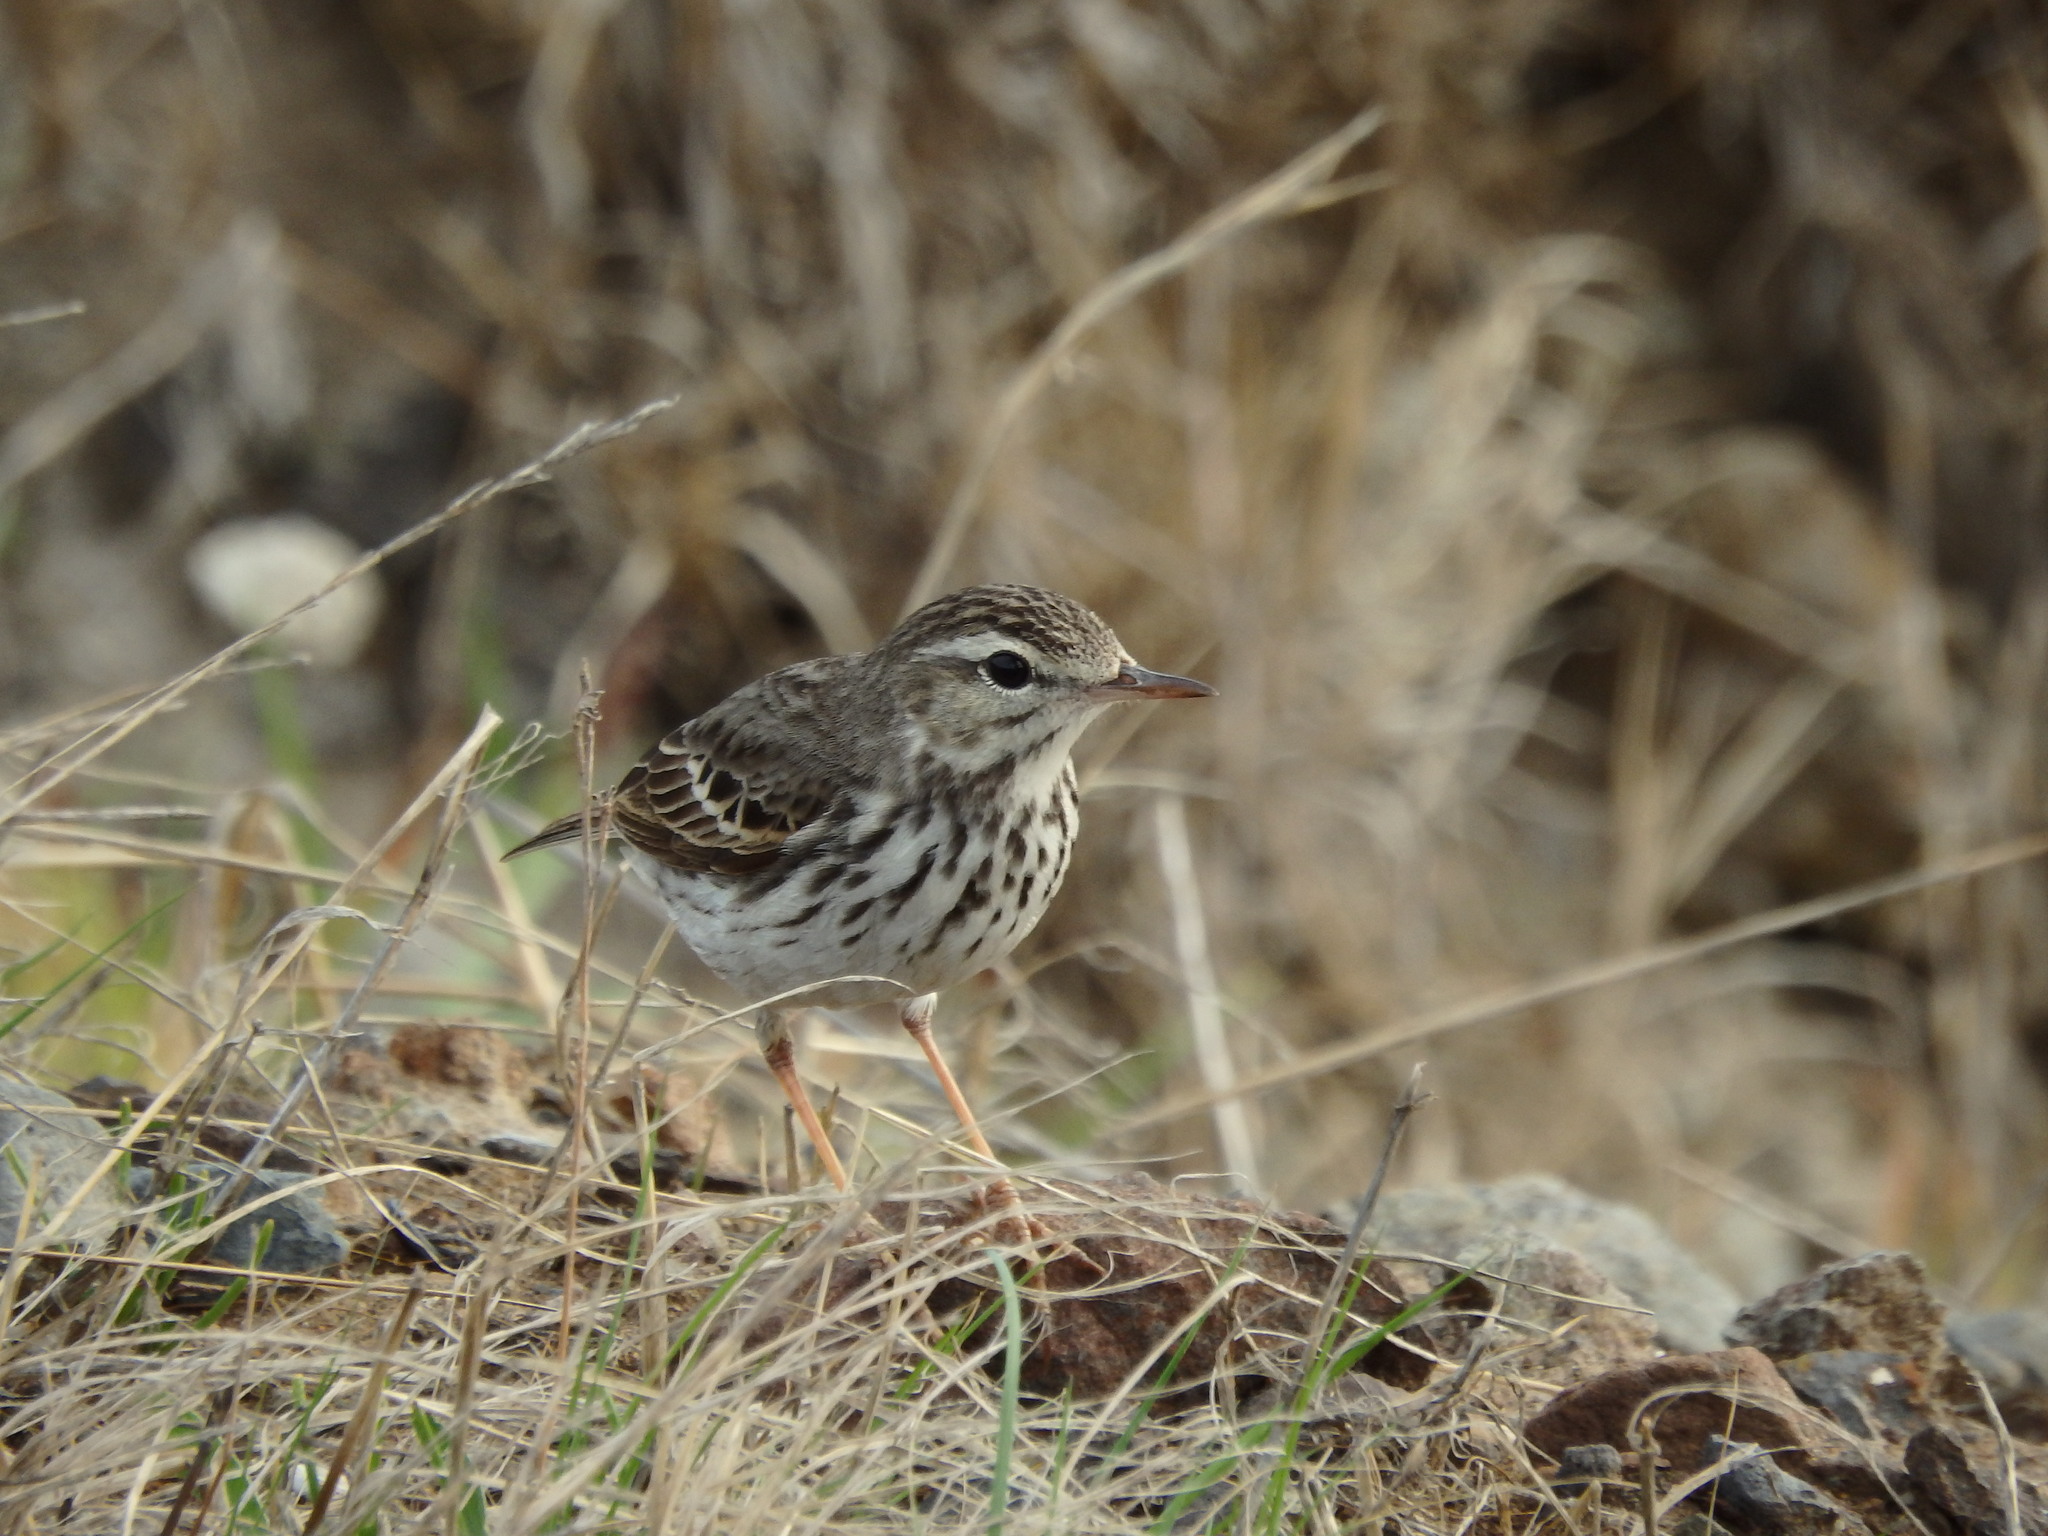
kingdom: Animalia
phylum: Chordata
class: Aves
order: Passeriformes
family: Motacillidae
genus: Anthus
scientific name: Anthus berthelotii
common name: Berthelot's pipit
